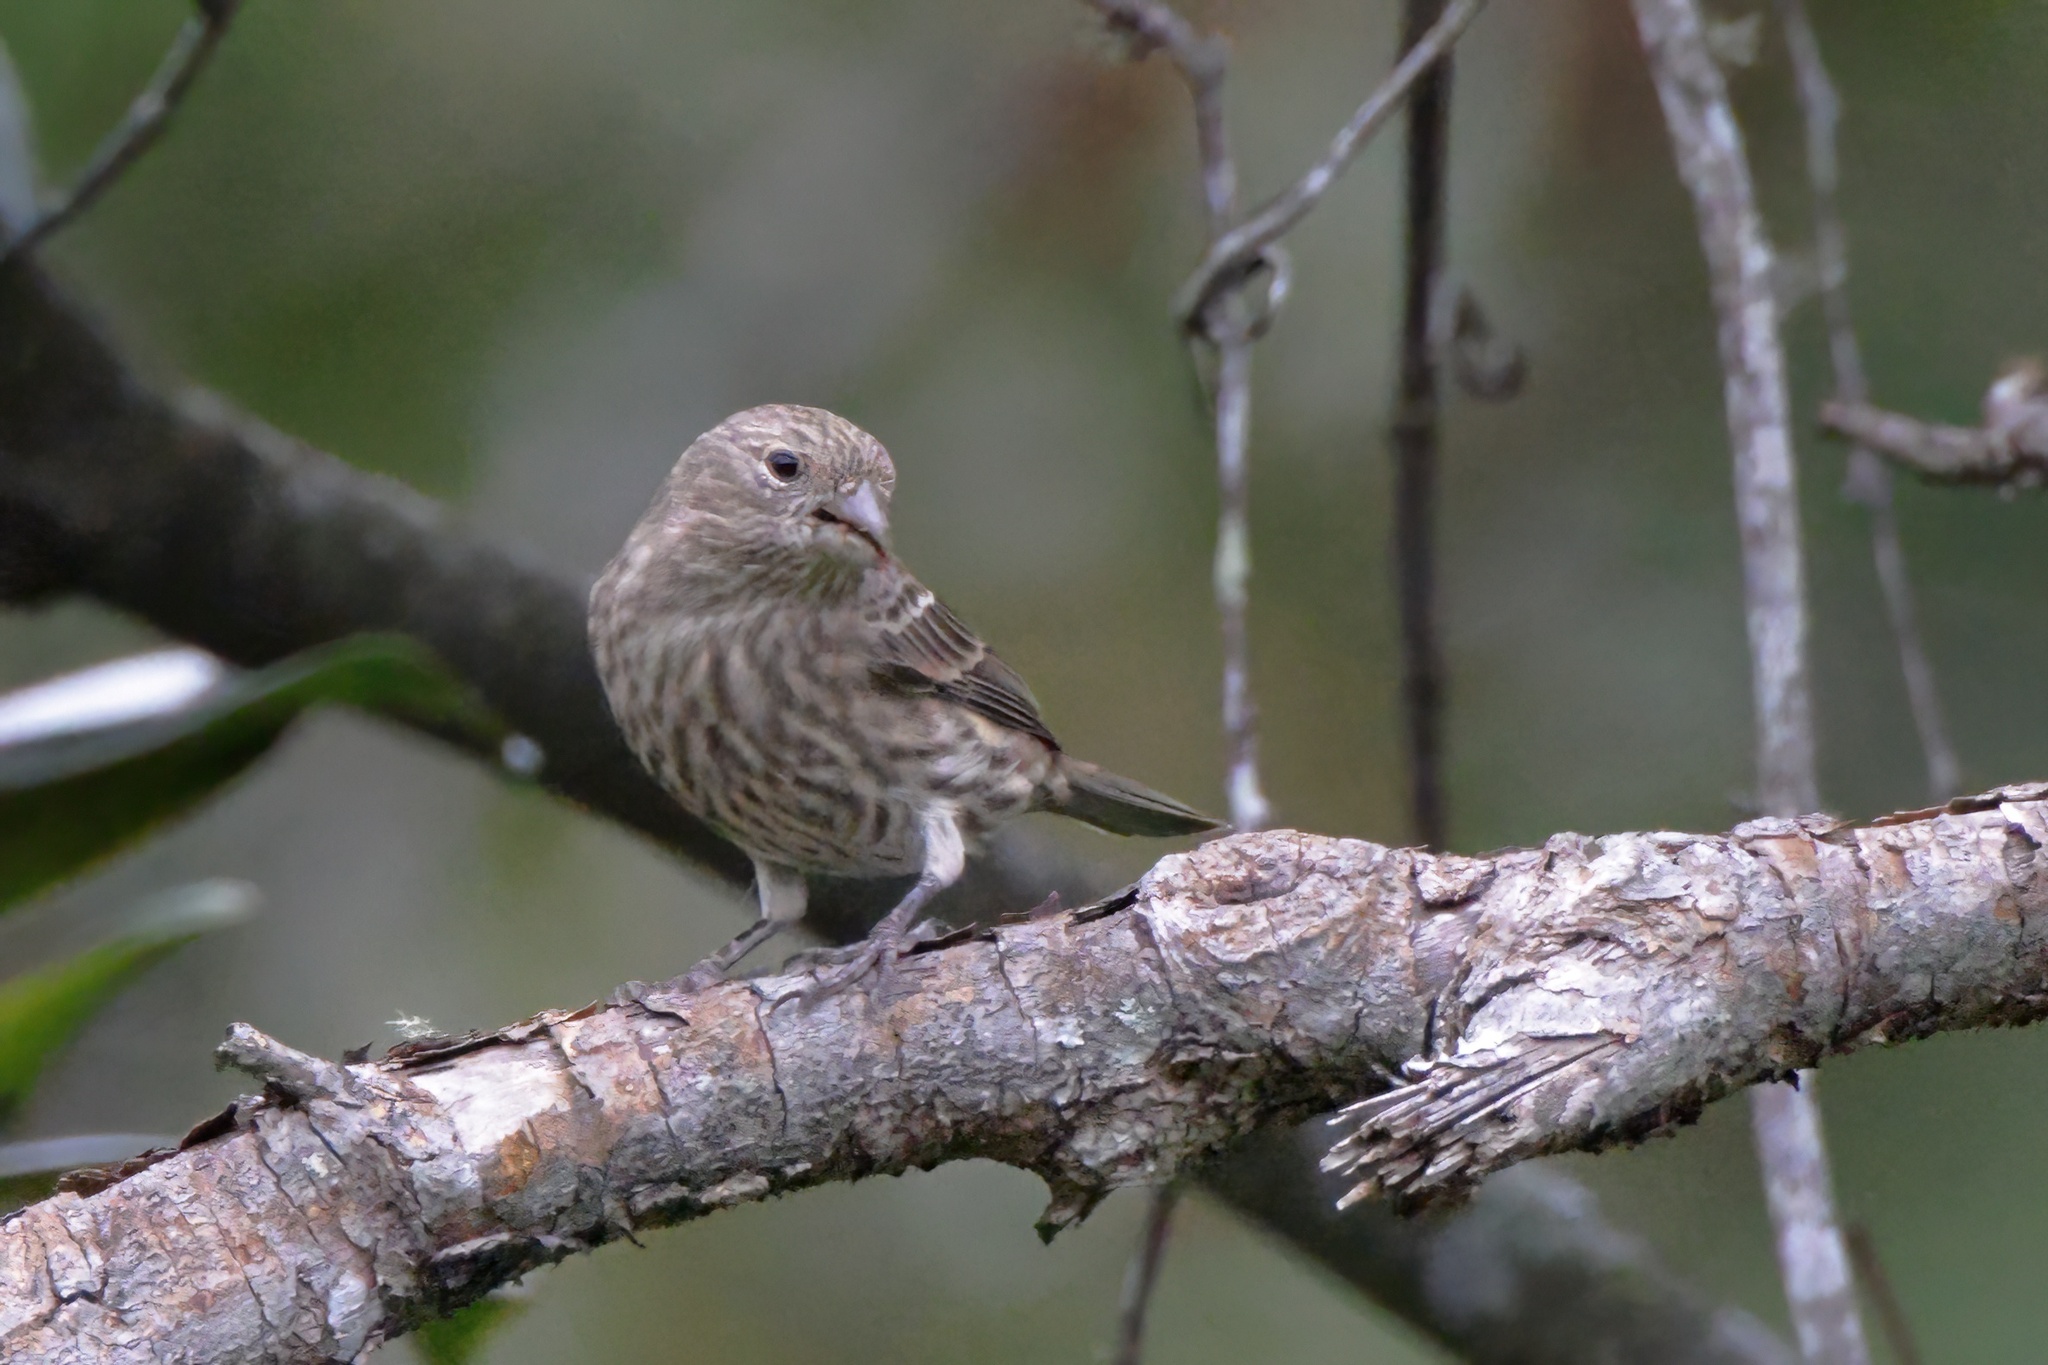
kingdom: Animalia
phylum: Chordata
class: Aves
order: Passeriformes
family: Fringillidae
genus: Haemorhous
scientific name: Haemorhous mexicanus
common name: House finch
